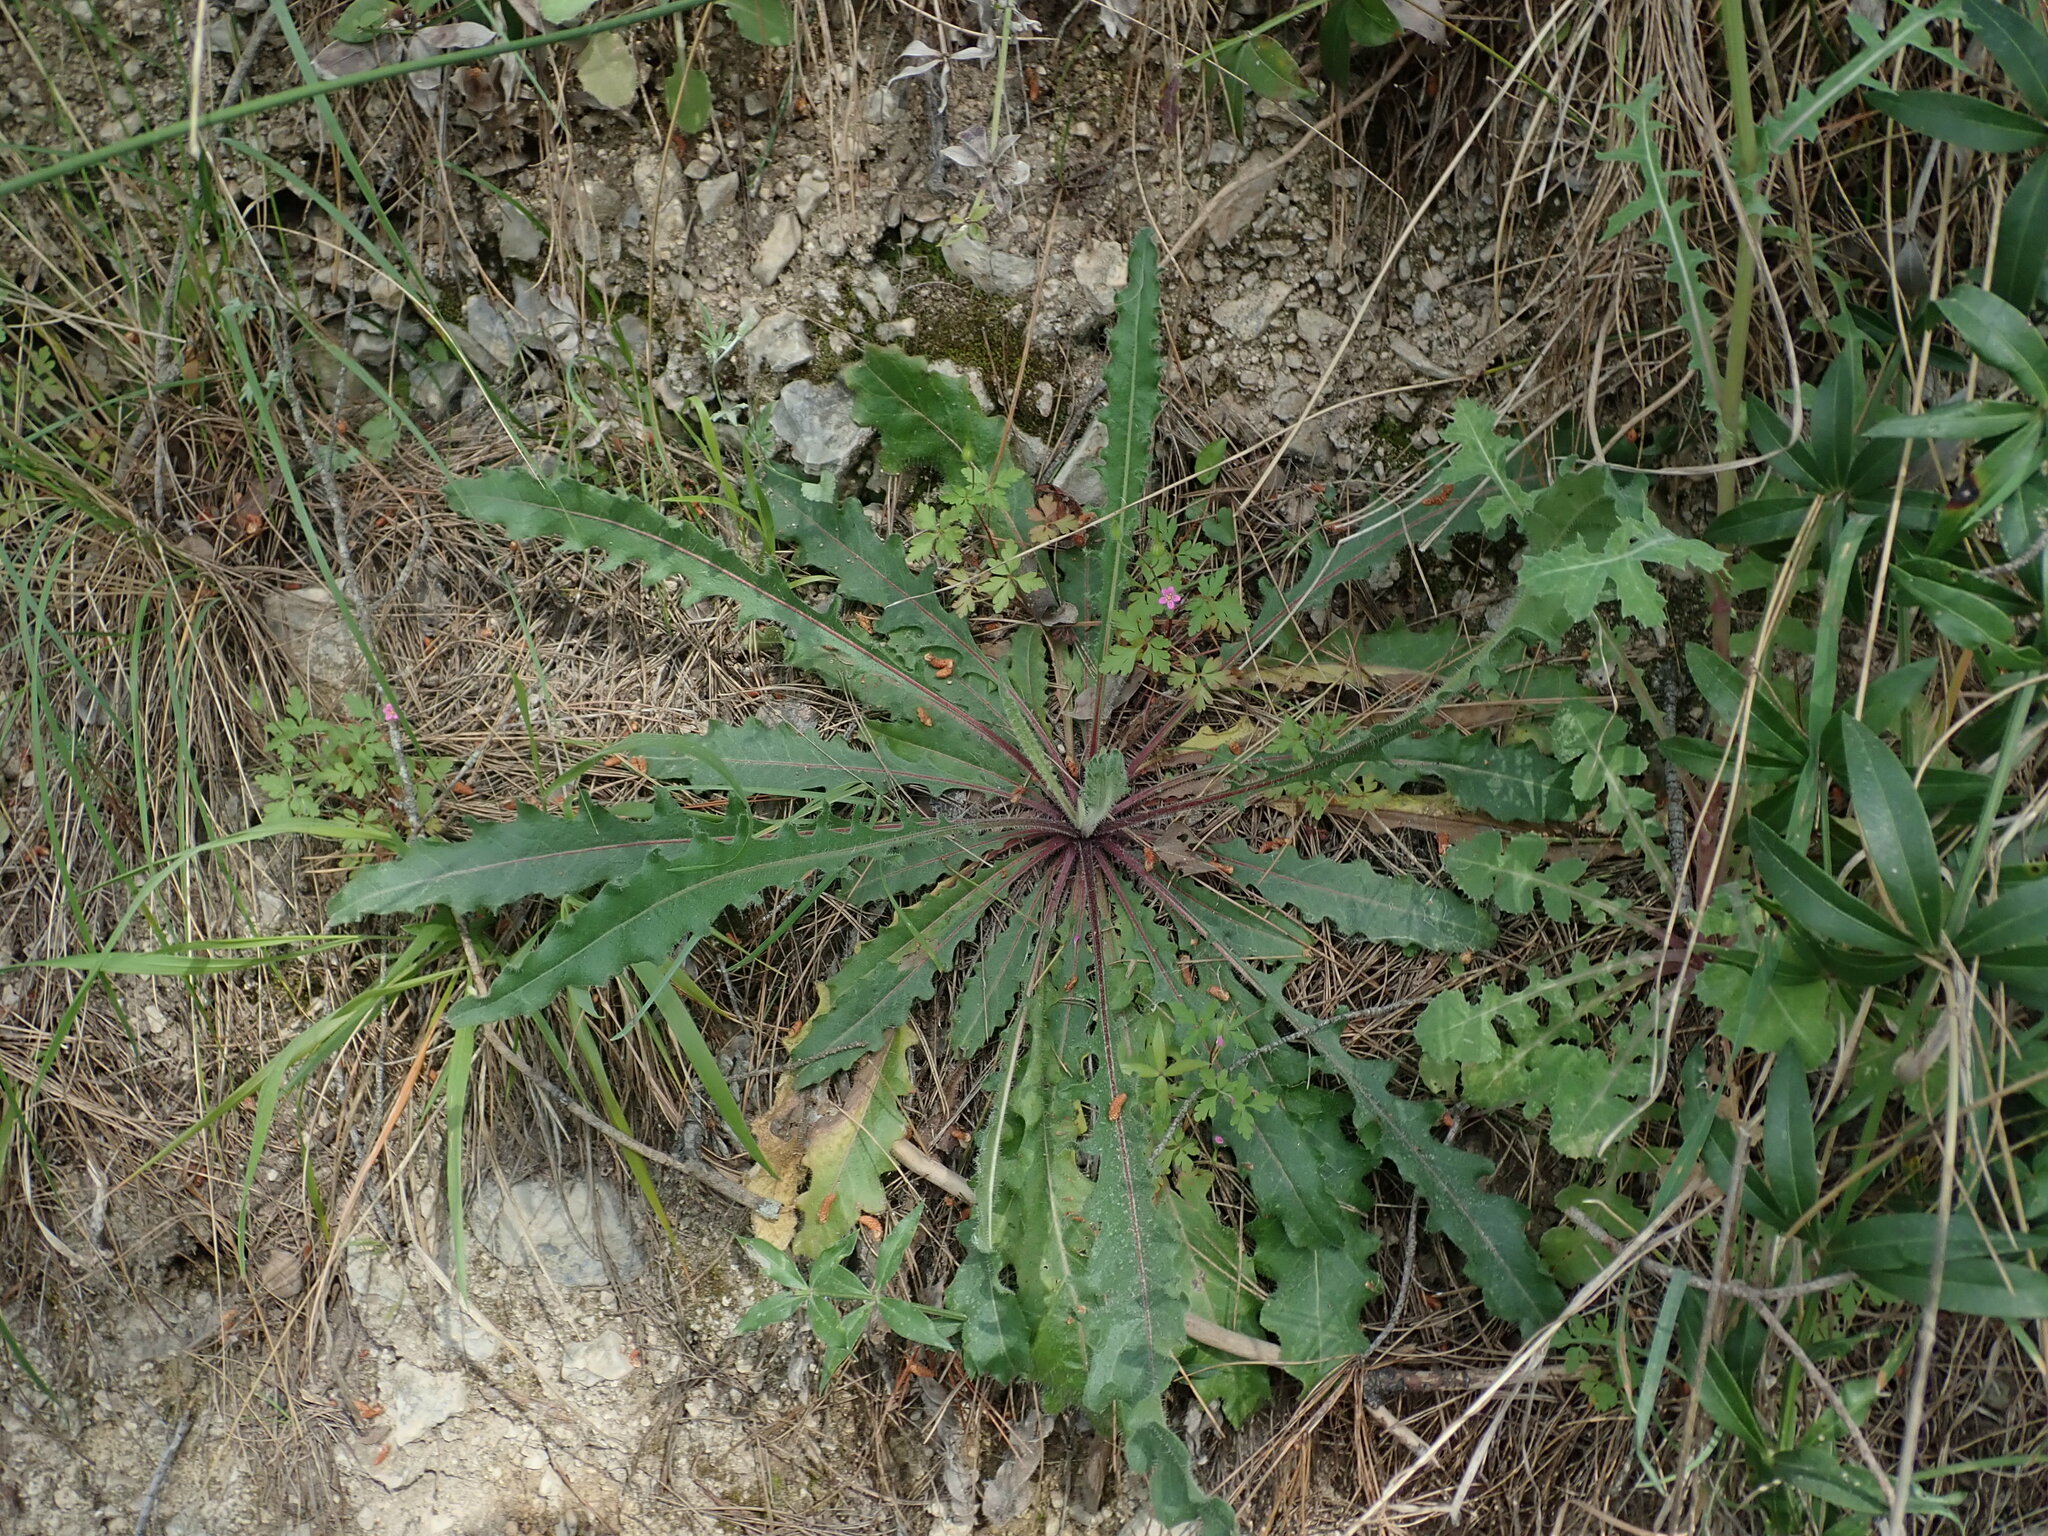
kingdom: Plantae
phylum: Tracheophyta
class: Magnoliopsida
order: Asterales
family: Asteraceae
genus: Picris
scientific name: Picris hieracioides
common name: Hawkweed oxtongue
